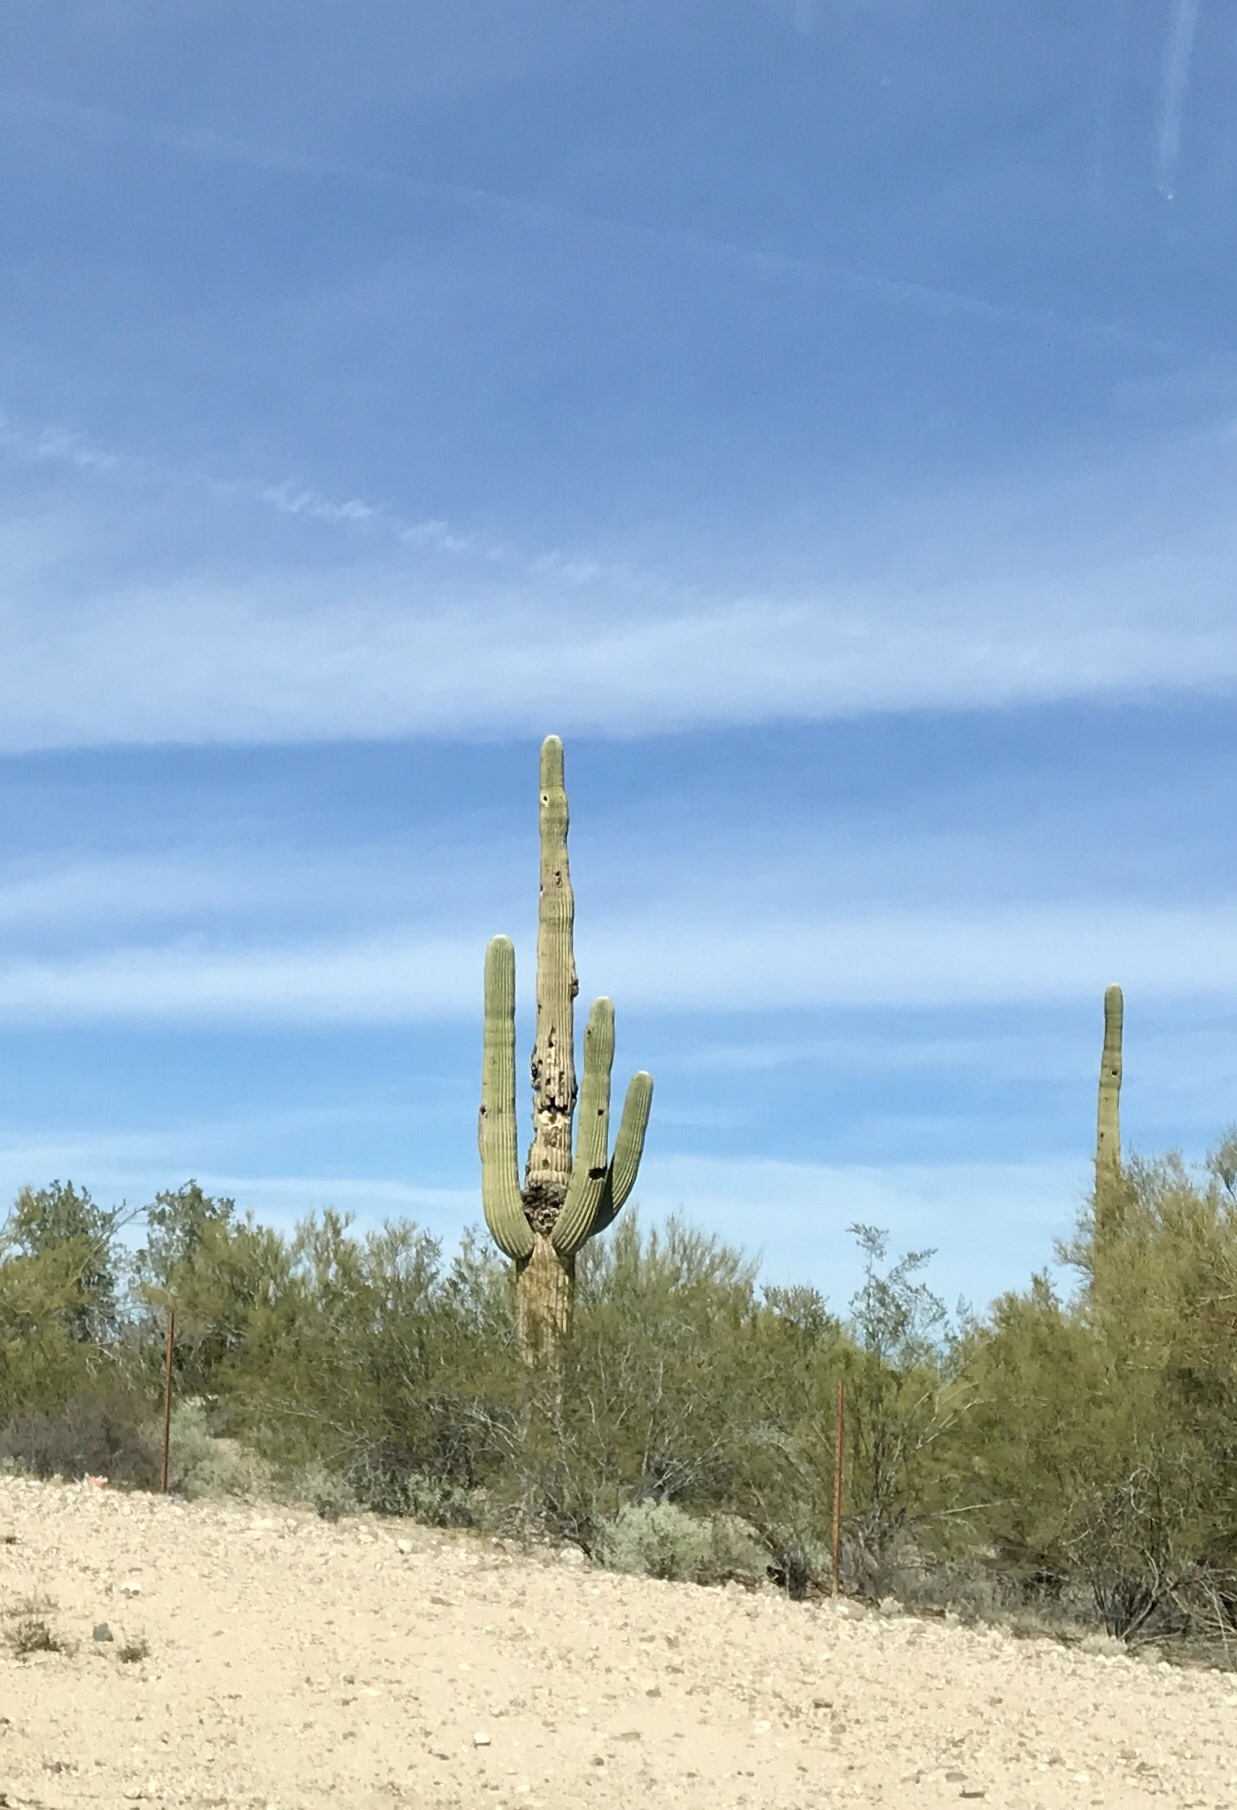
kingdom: Plantae
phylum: Tracheophyta
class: Magnoliopsida
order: Caryophyllales
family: Cactaceae
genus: Carnegiea
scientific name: Carnegiea gigantea
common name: Saguaro
